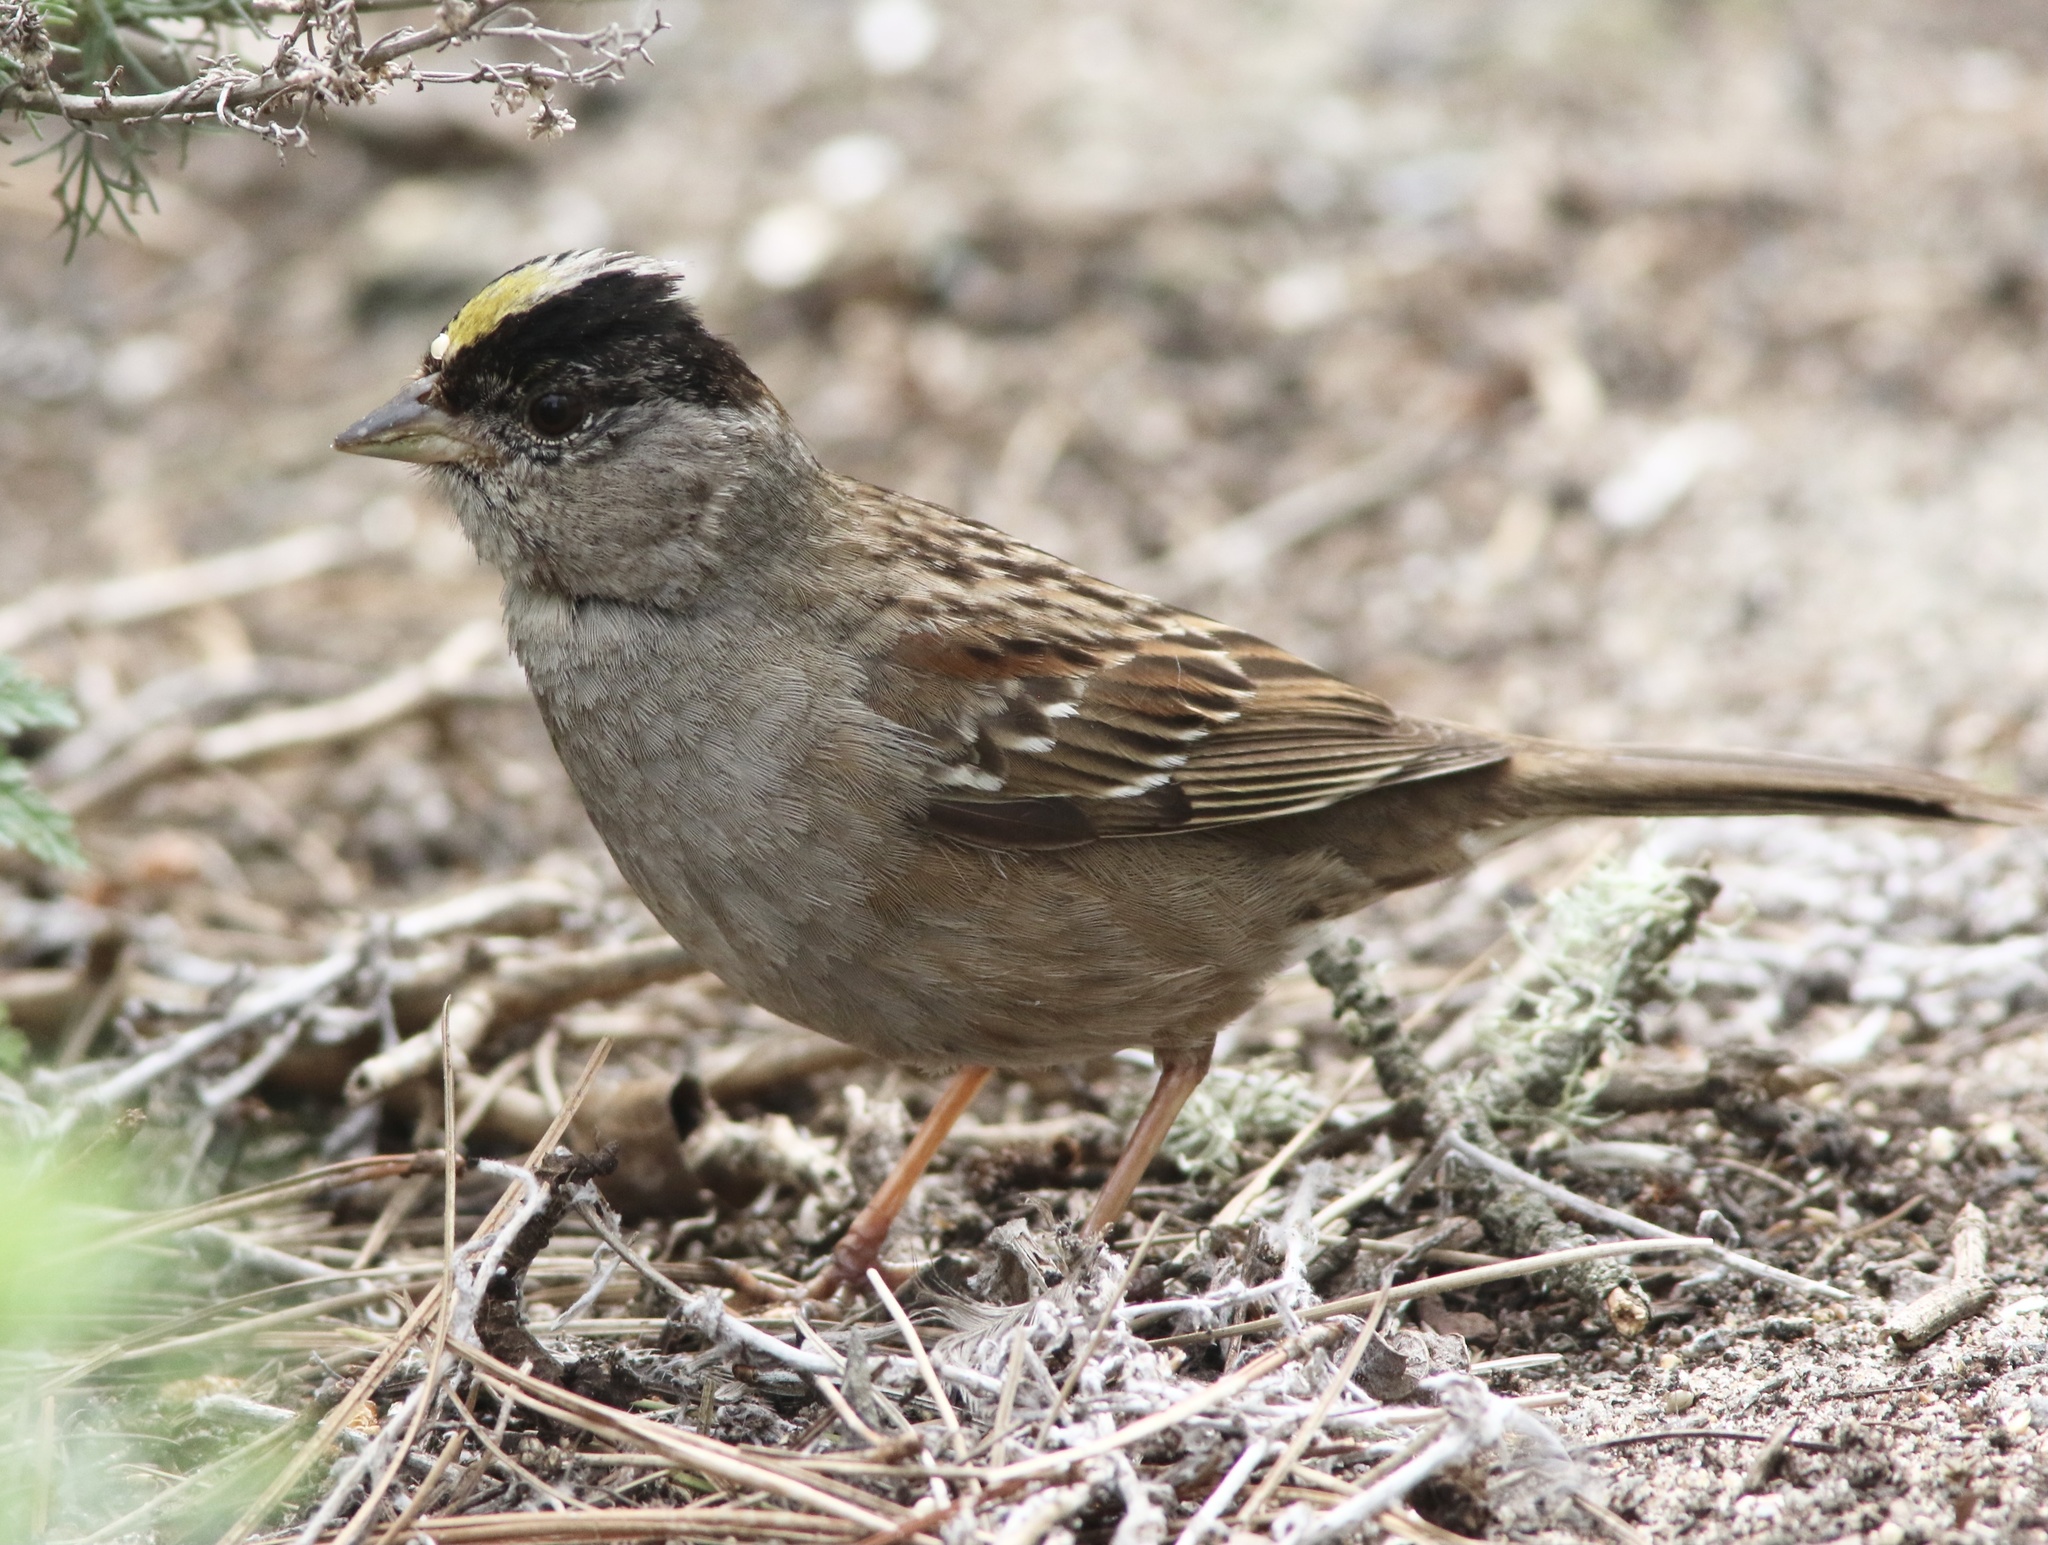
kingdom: Animalia
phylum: Chordata
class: Aves
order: Passeriformes
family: Passerellidae
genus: Zonotrichia
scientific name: Zonotrichia atricapilla
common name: Golden-crowned sparrow
